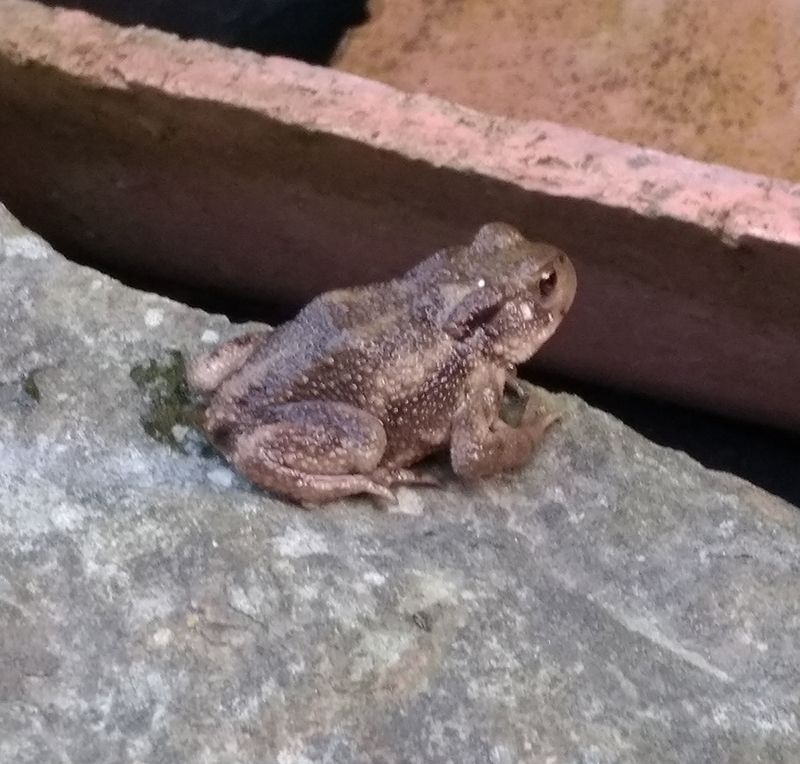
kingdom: Animalia
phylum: Chordata
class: Amphibia
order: Anura
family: Bufonidae
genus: Bufo
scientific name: Bufo bufo
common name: Common toad
